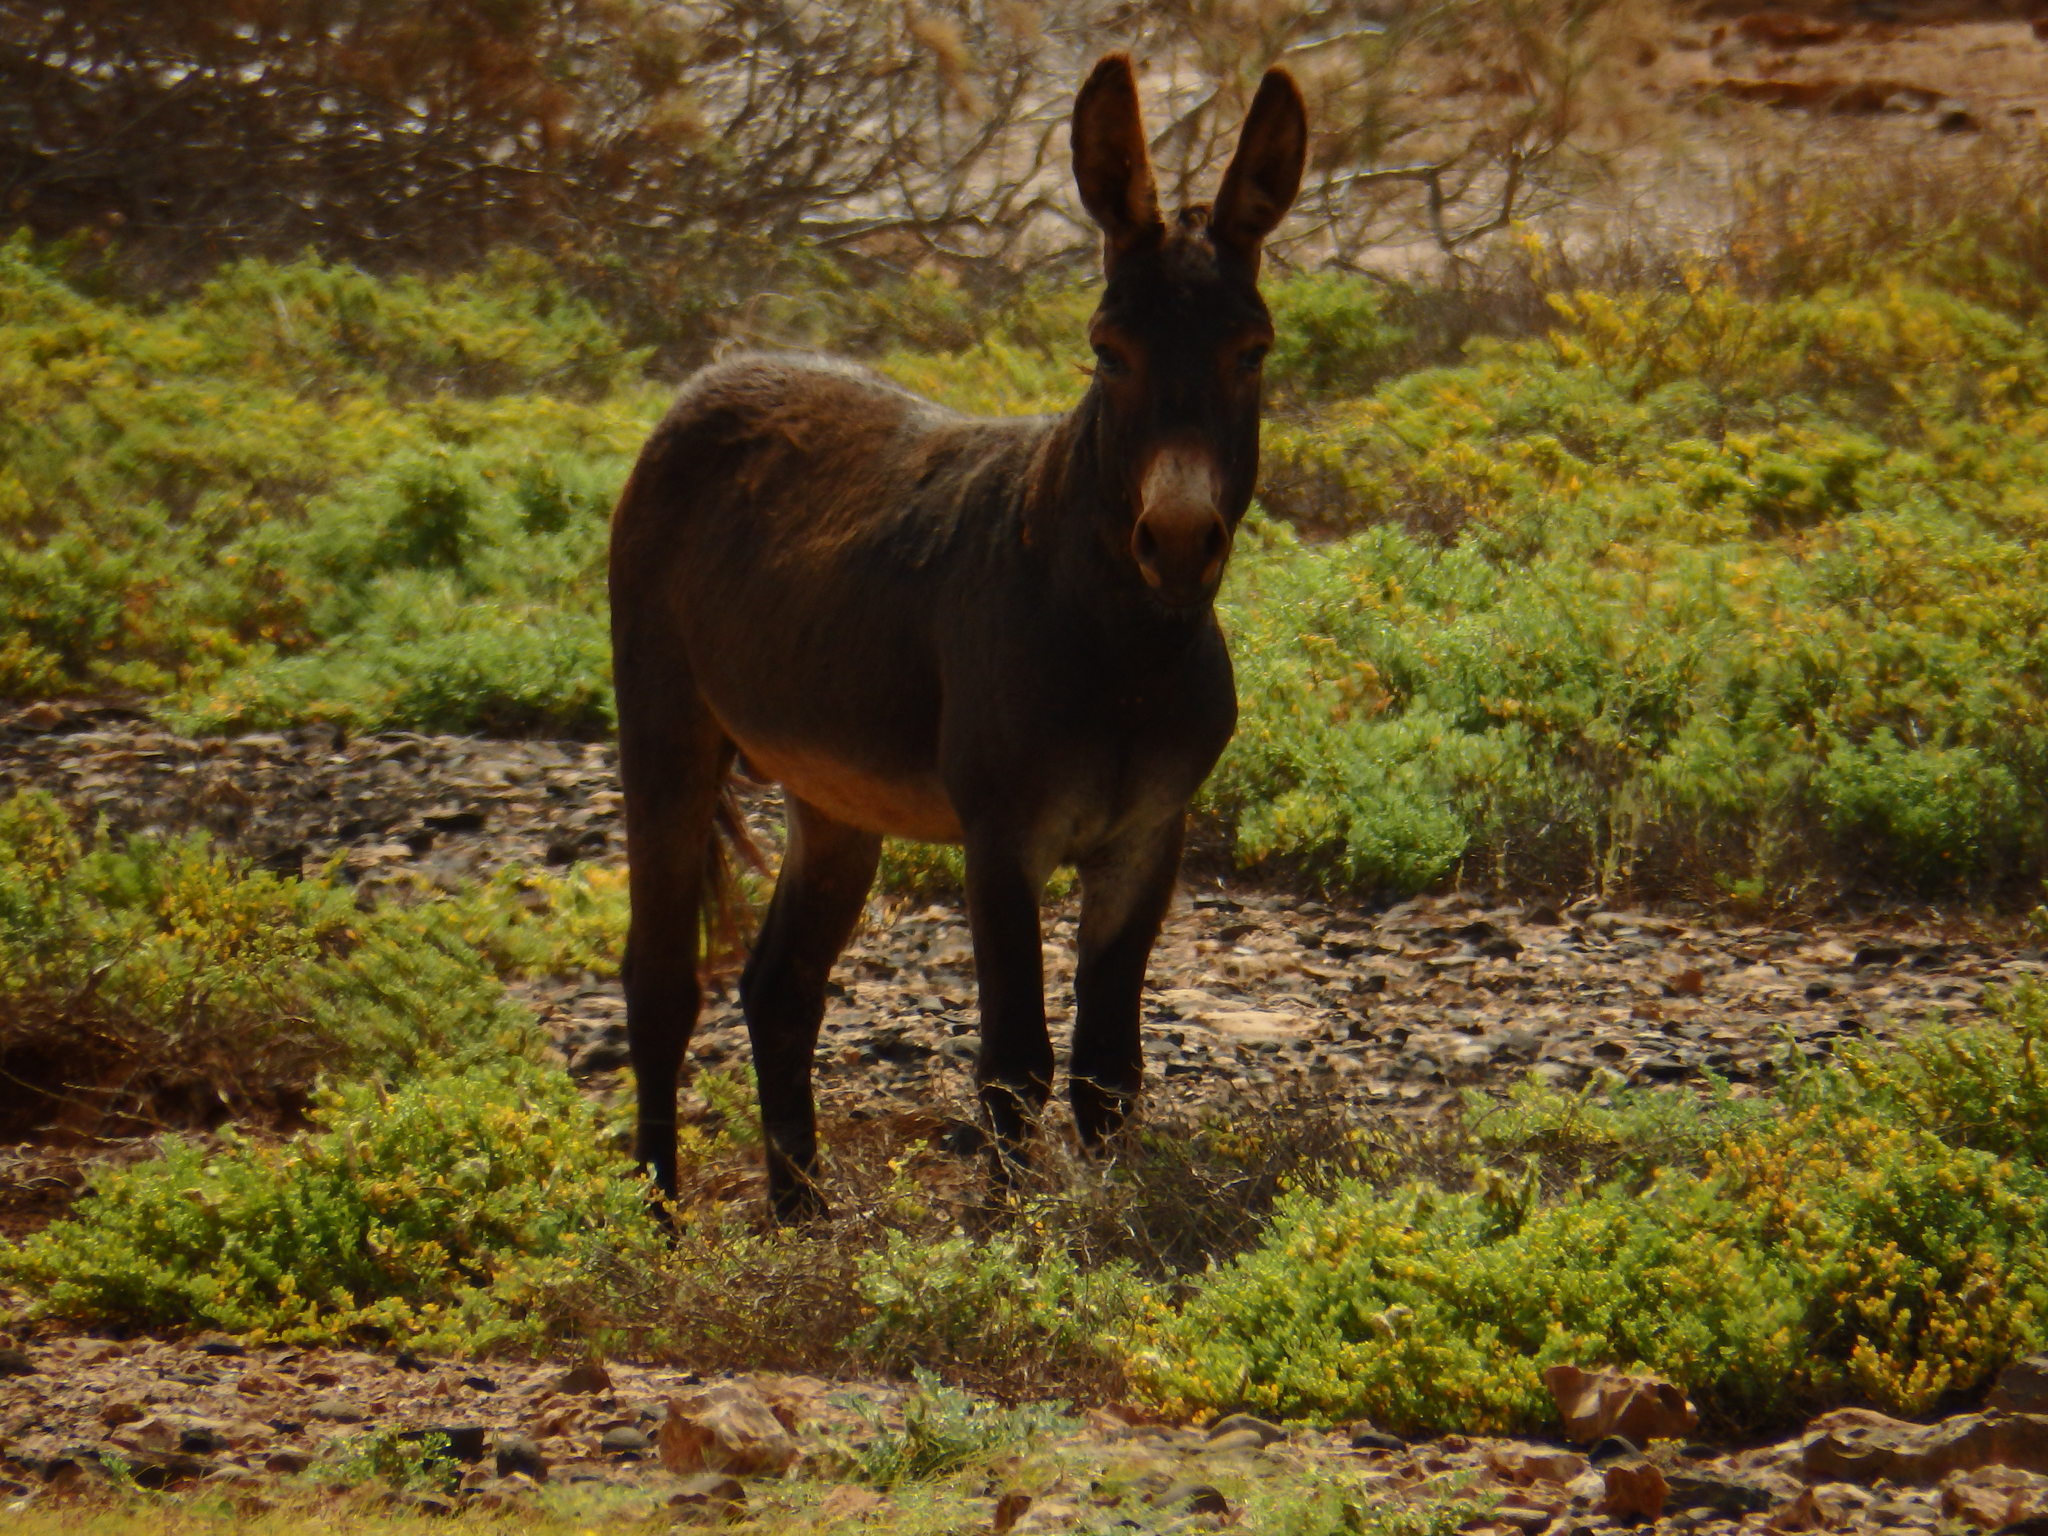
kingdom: Animalia
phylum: Chordata
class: Mammalia
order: Perissodactyla
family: Equidae
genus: Equus
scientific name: Equus asinus
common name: Ass
